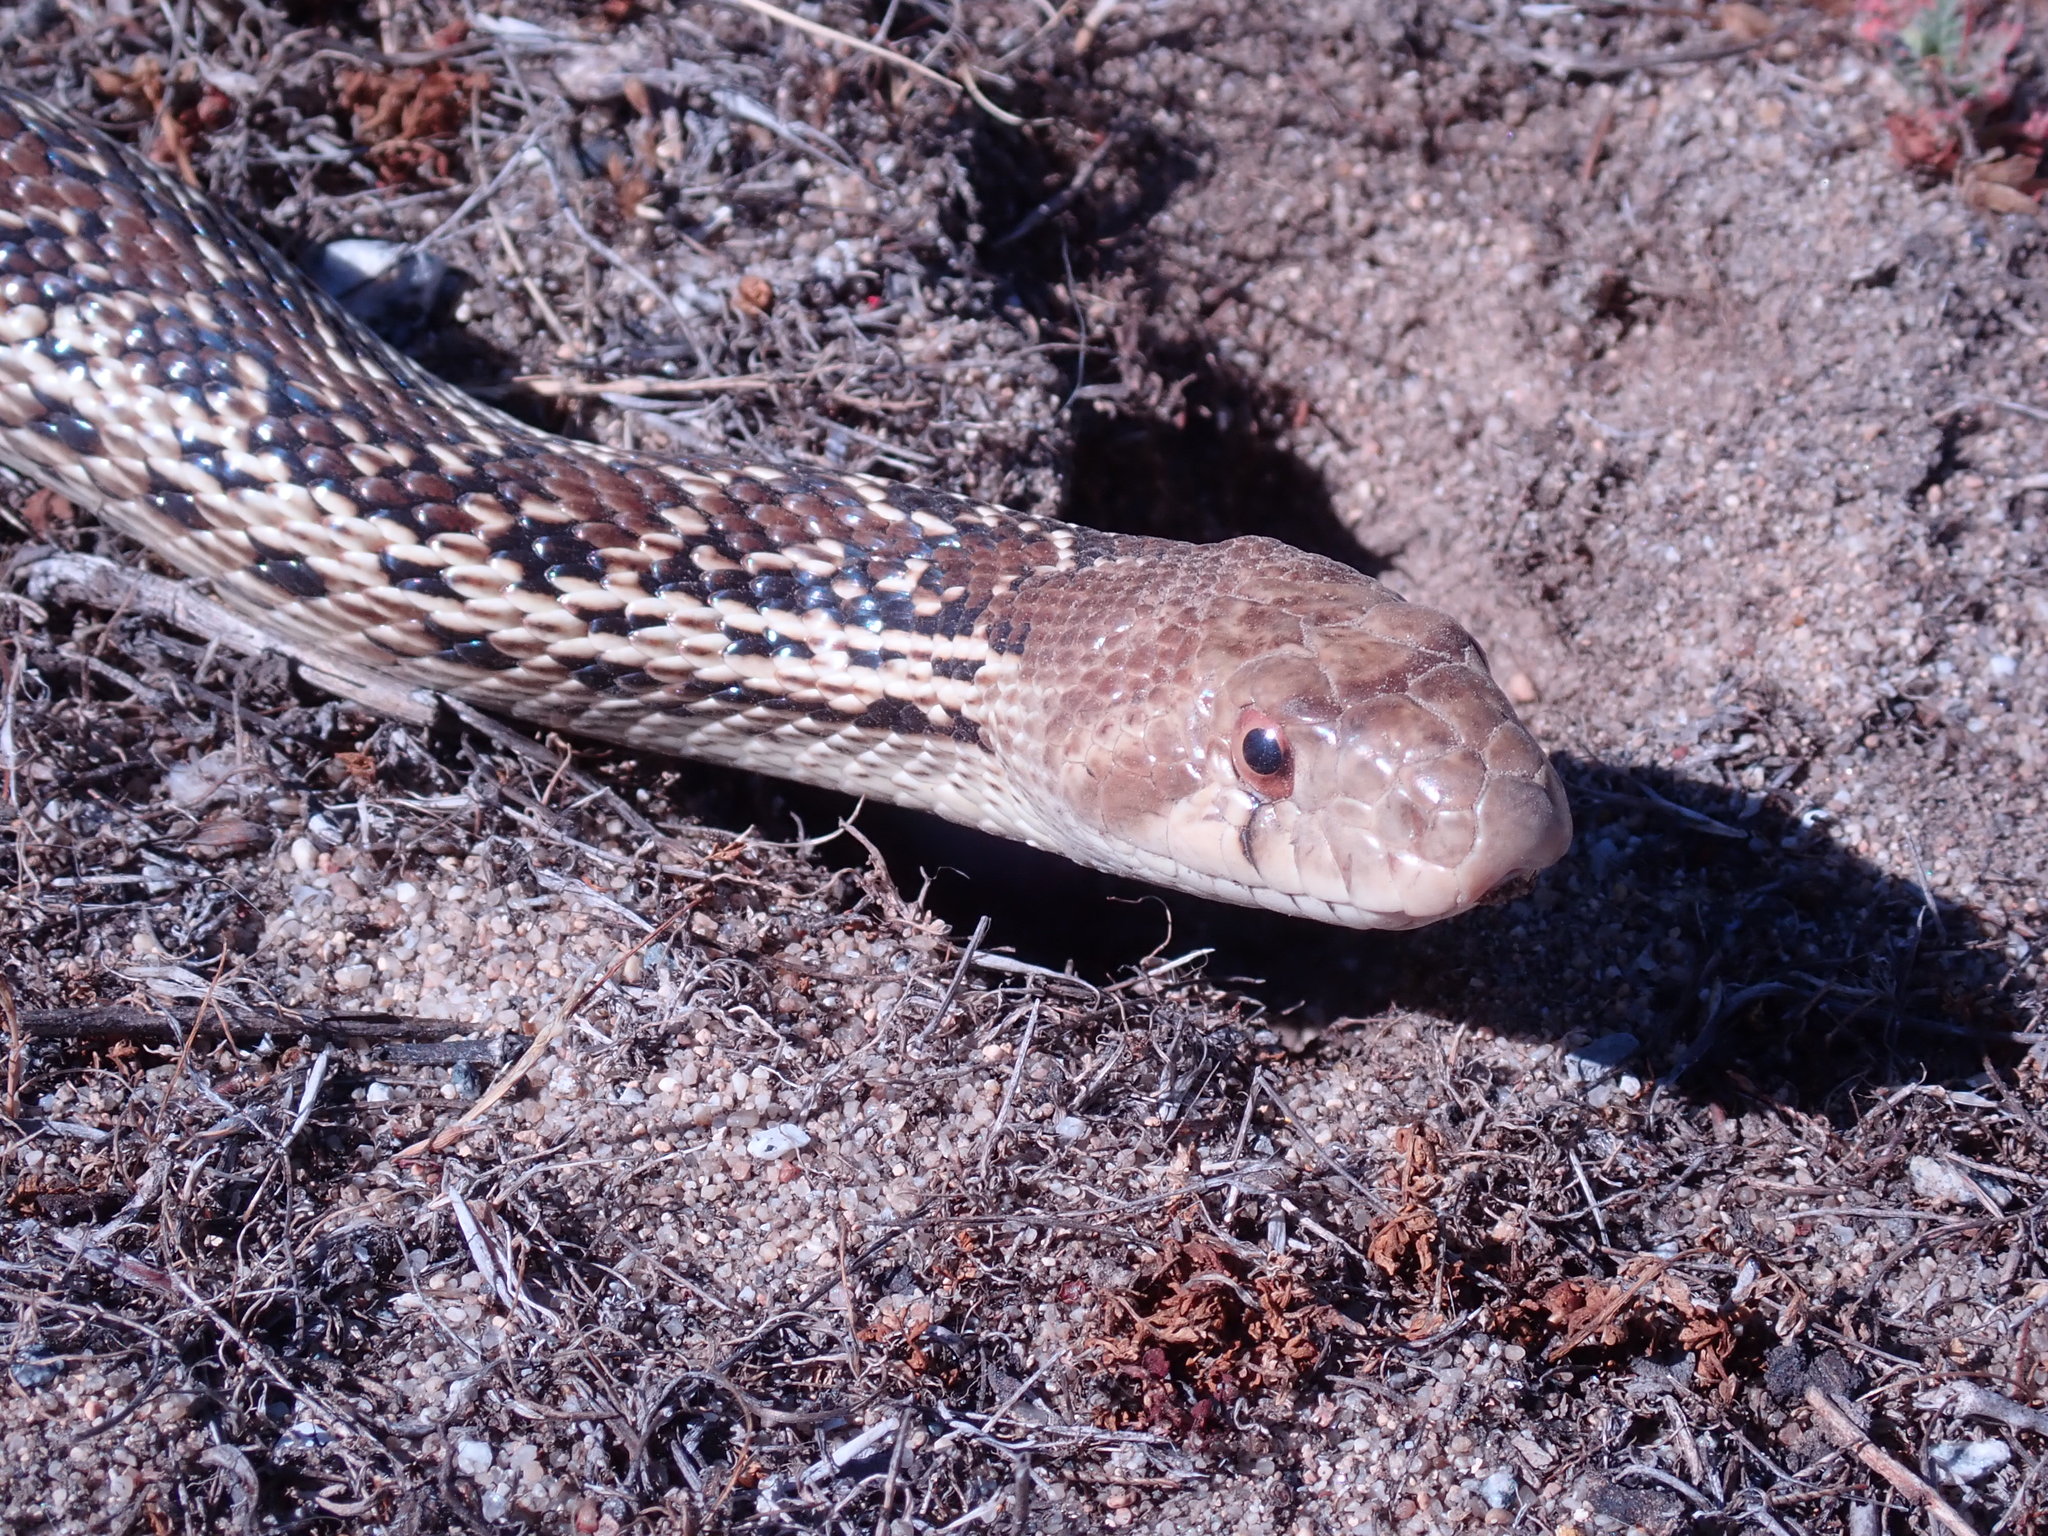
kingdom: Animalia
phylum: Chordata
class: Squamata
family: Colubridae
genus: Pituophis
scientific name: Pituophis catenifer
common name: Gopher snake
